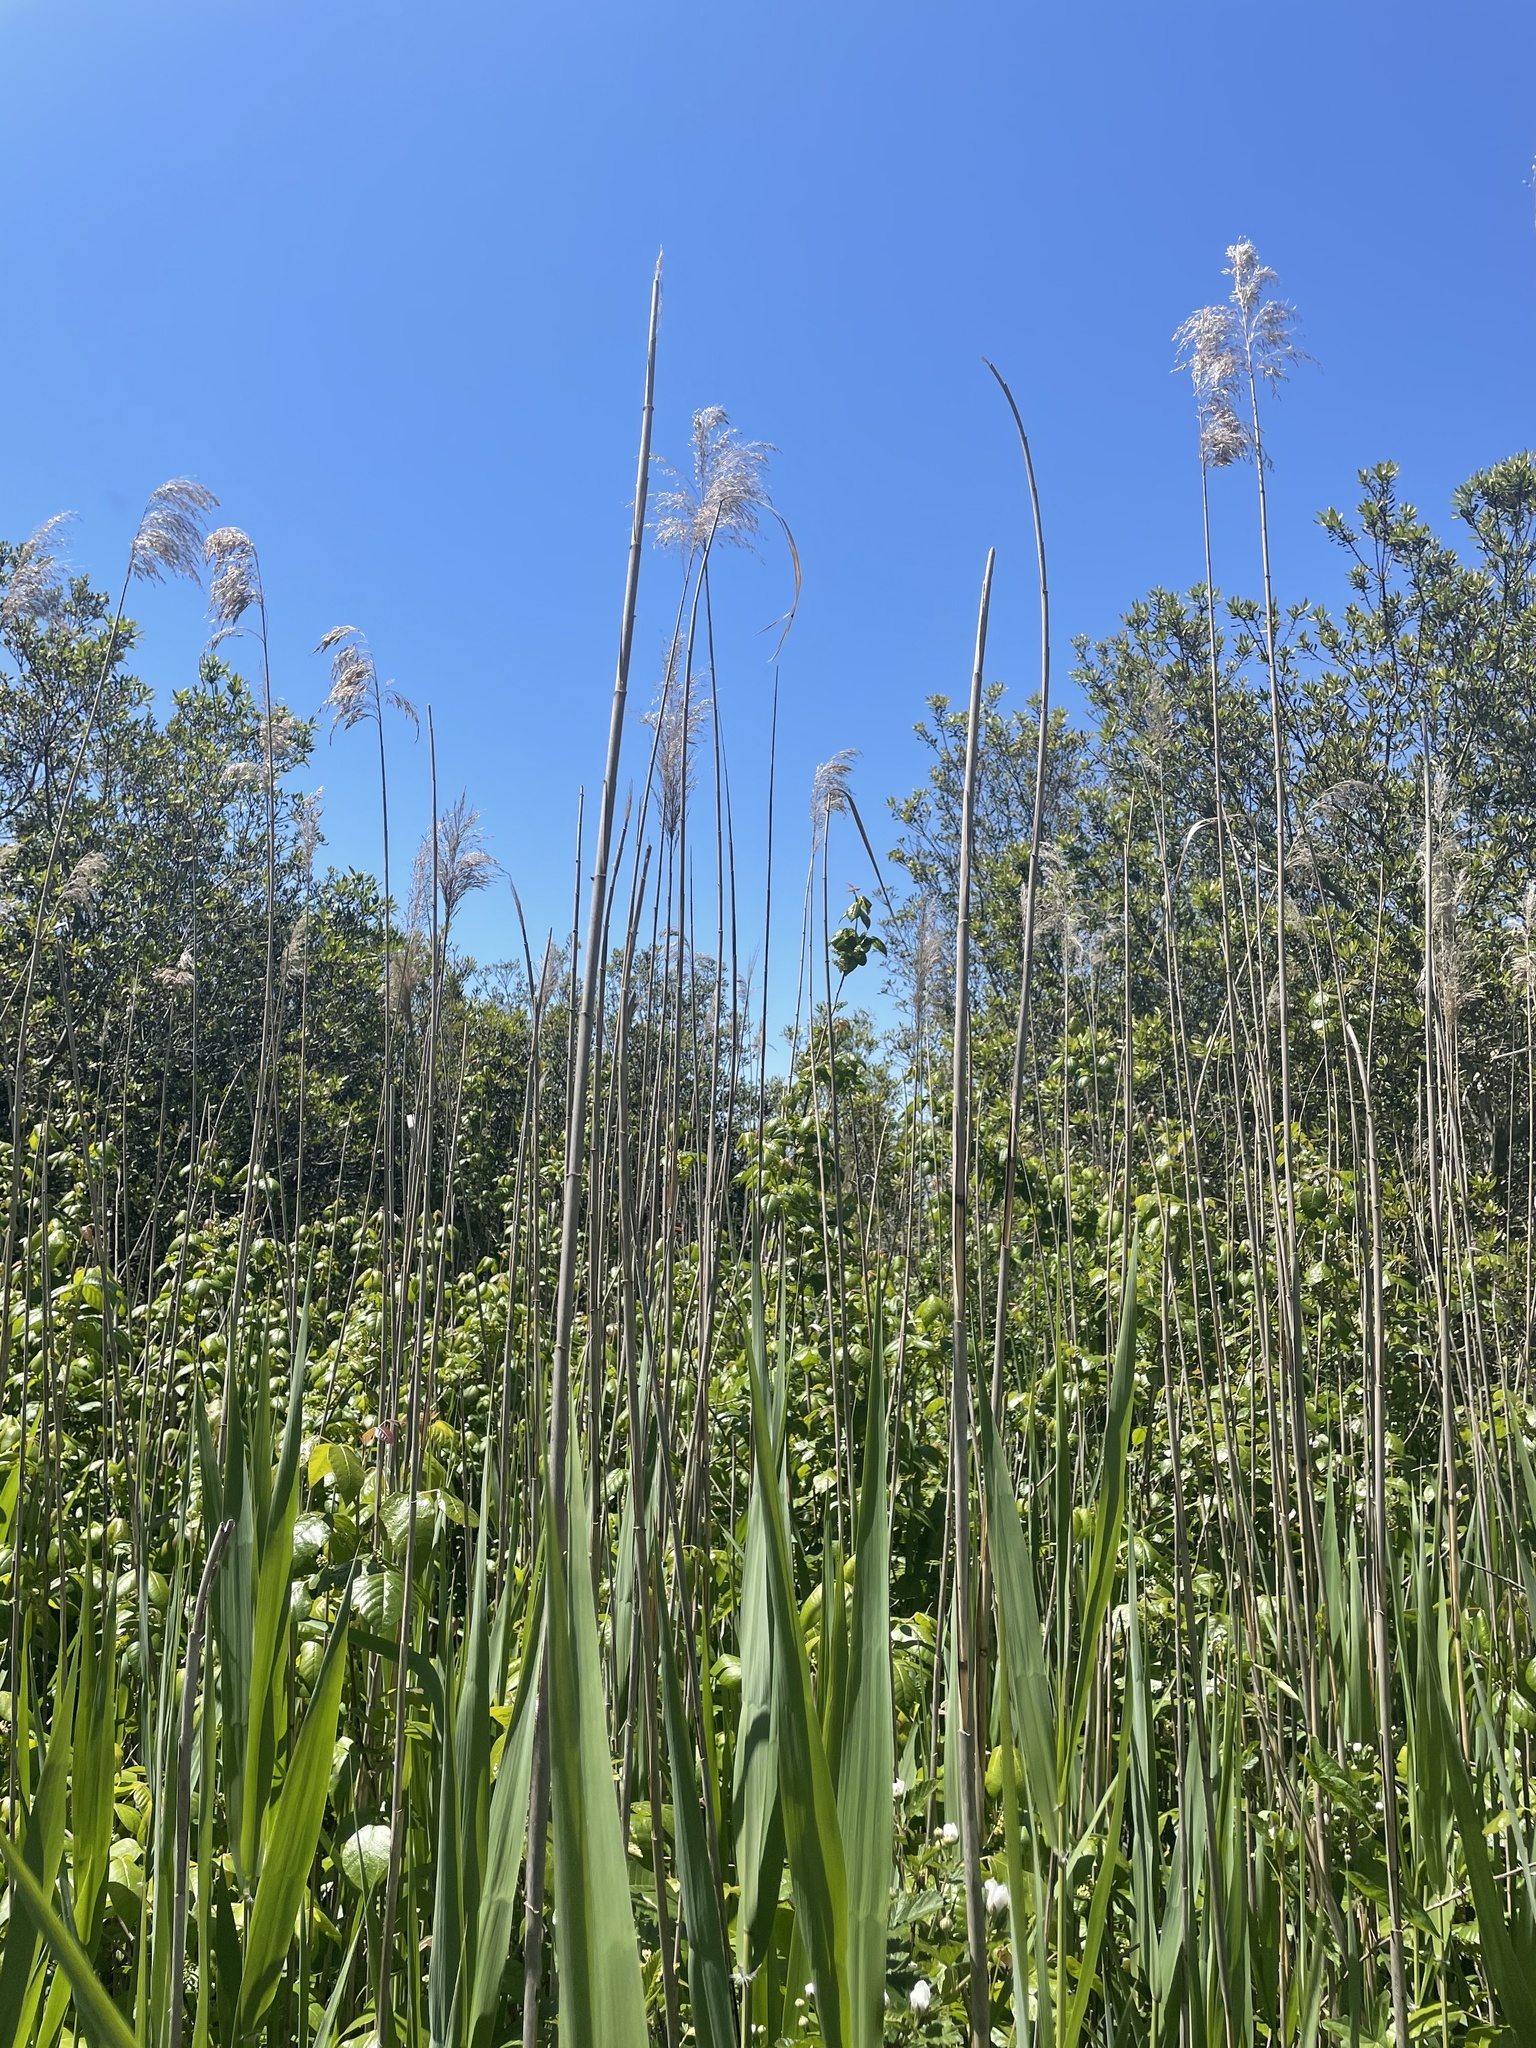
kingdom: Plantae
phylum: Tracheophyta
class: Liliopsida
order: Poales
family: Poaceae
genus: Phragmites
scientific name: Phragmites australis
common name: Common reed
